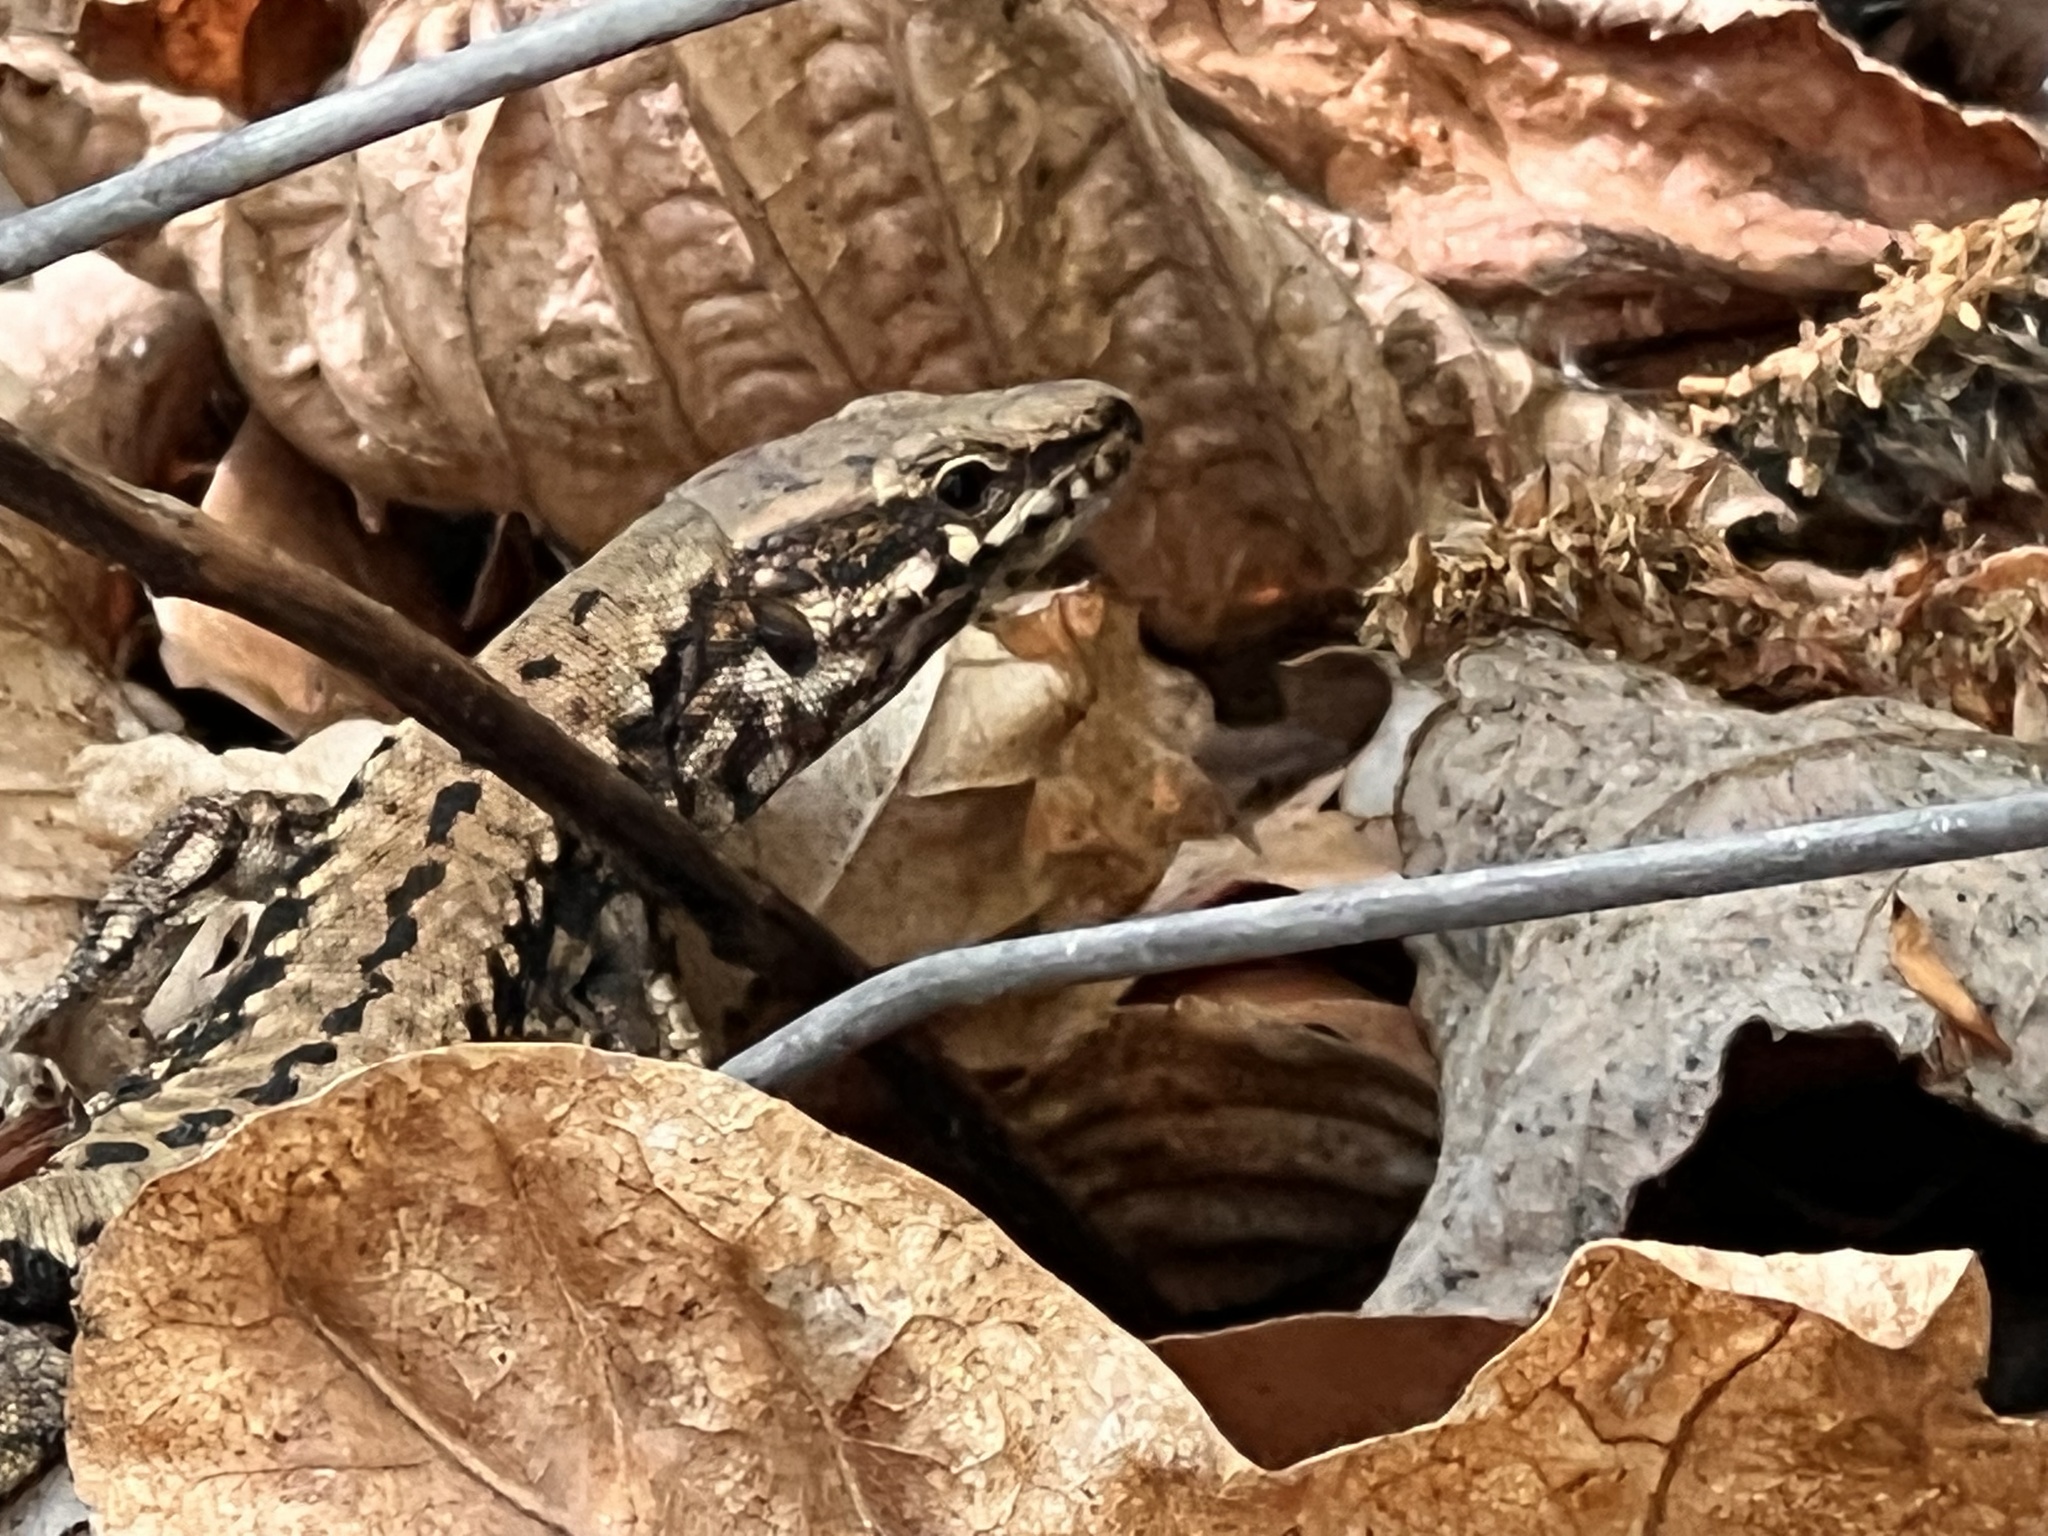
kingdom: Animalia
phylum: Chordata
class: Squamata
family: Lacertidae
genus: Podarcis
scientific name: Podarcis muralis
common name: Common wall lizard
